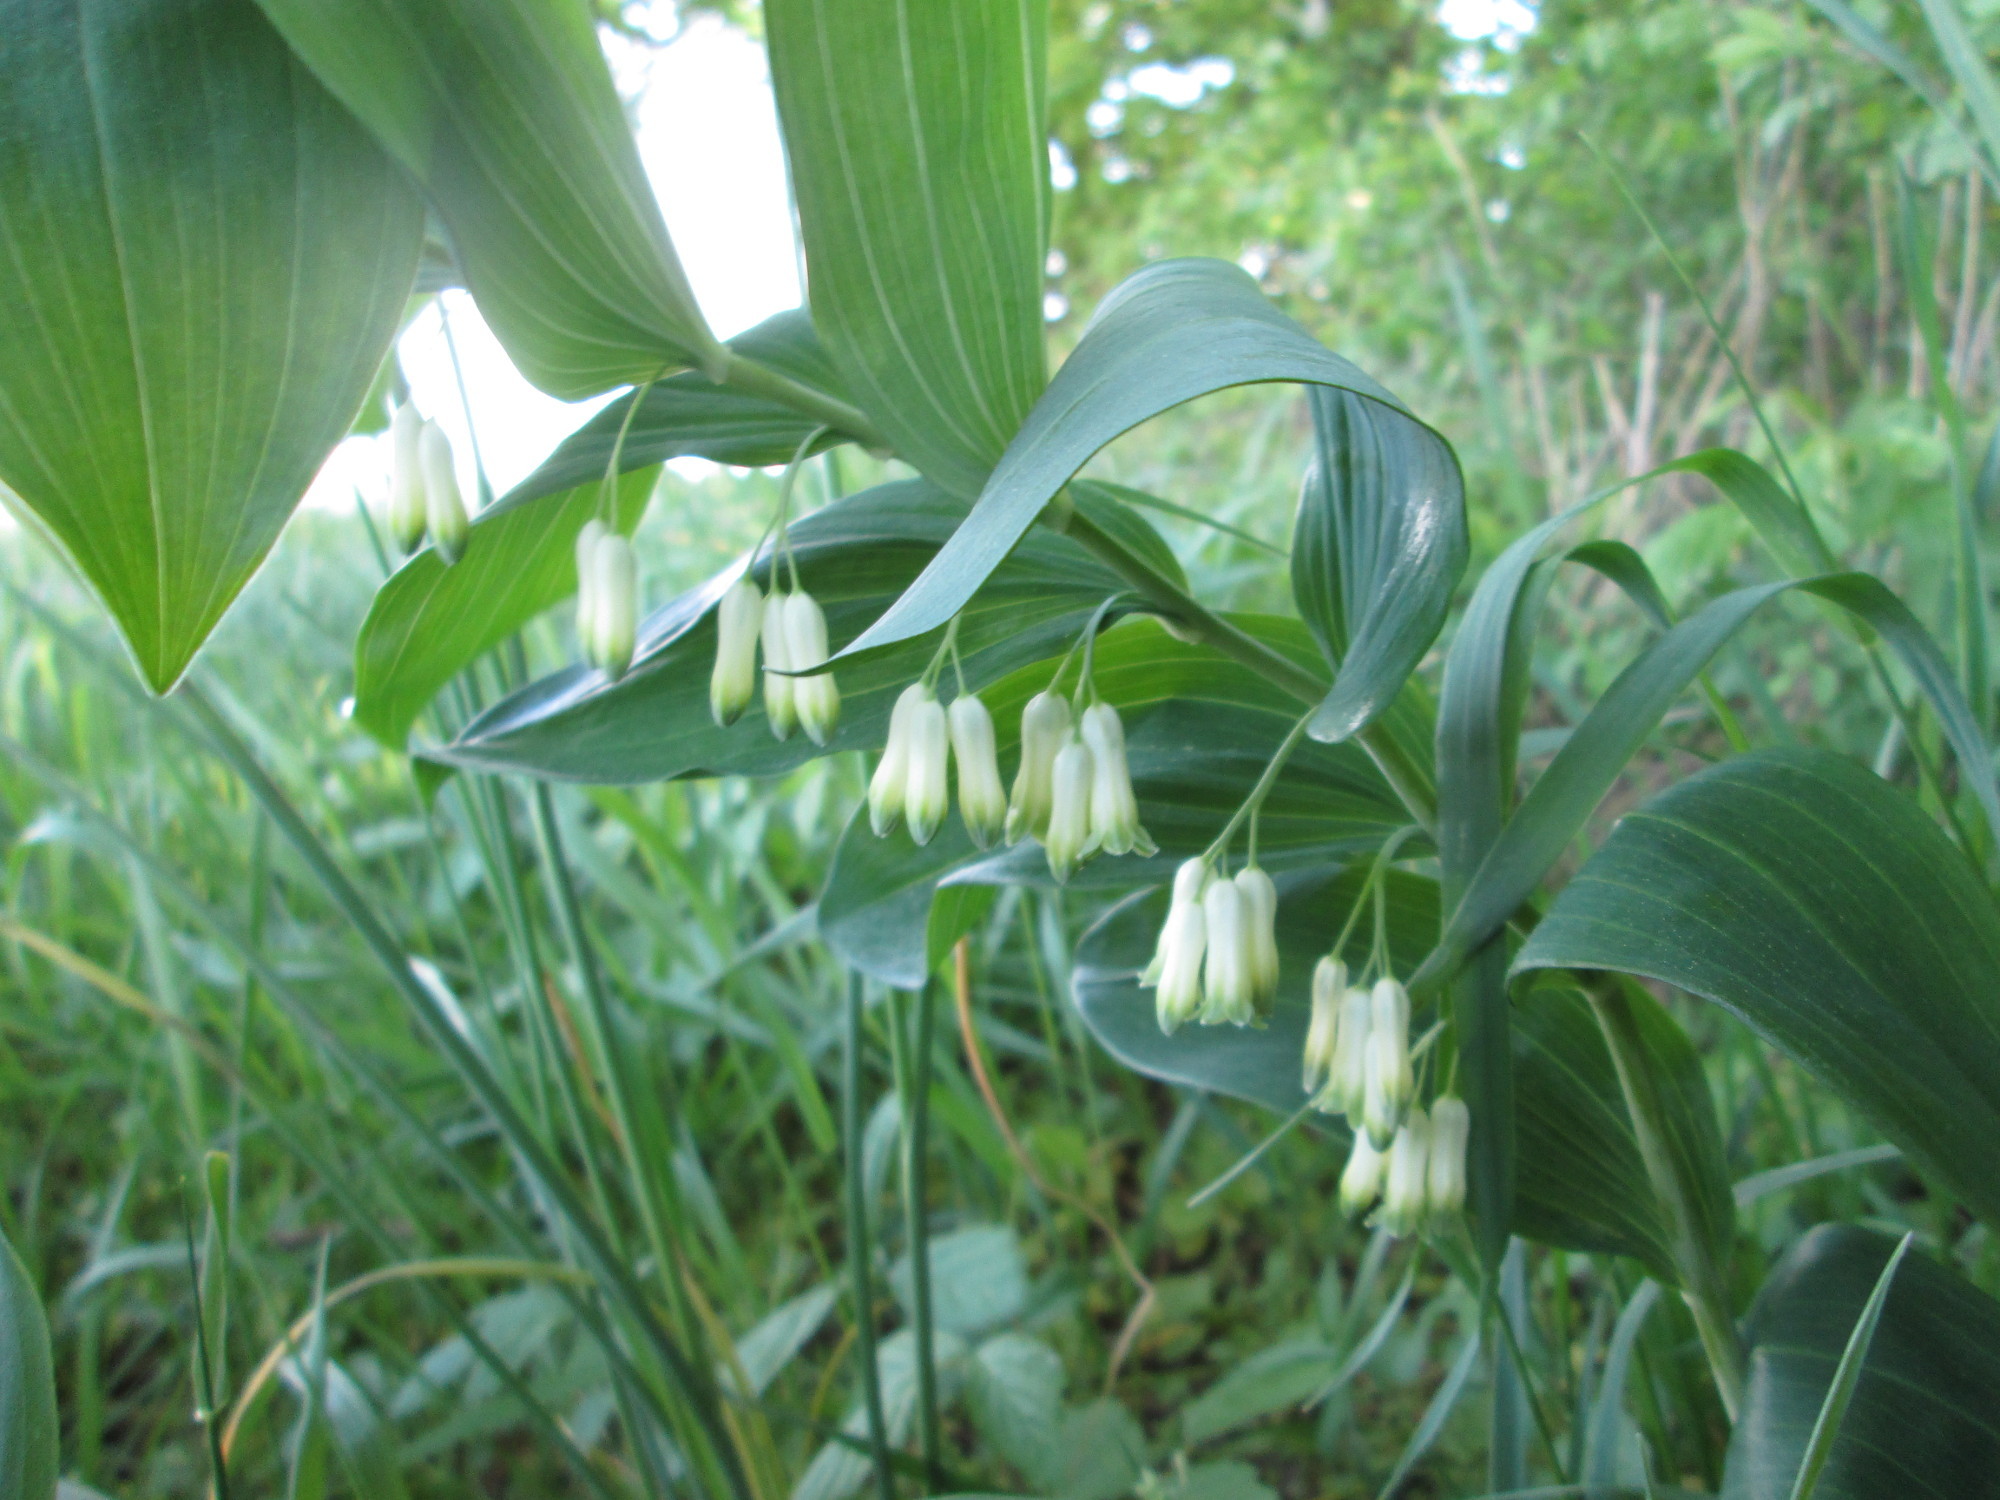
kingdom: Plantae
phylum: Tracheophyta
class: Liliopsida
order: Asparagales
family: Asparagaceae
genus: Polygonatum
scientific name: Polygonatum multiflorum
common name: Solomon's-seal
